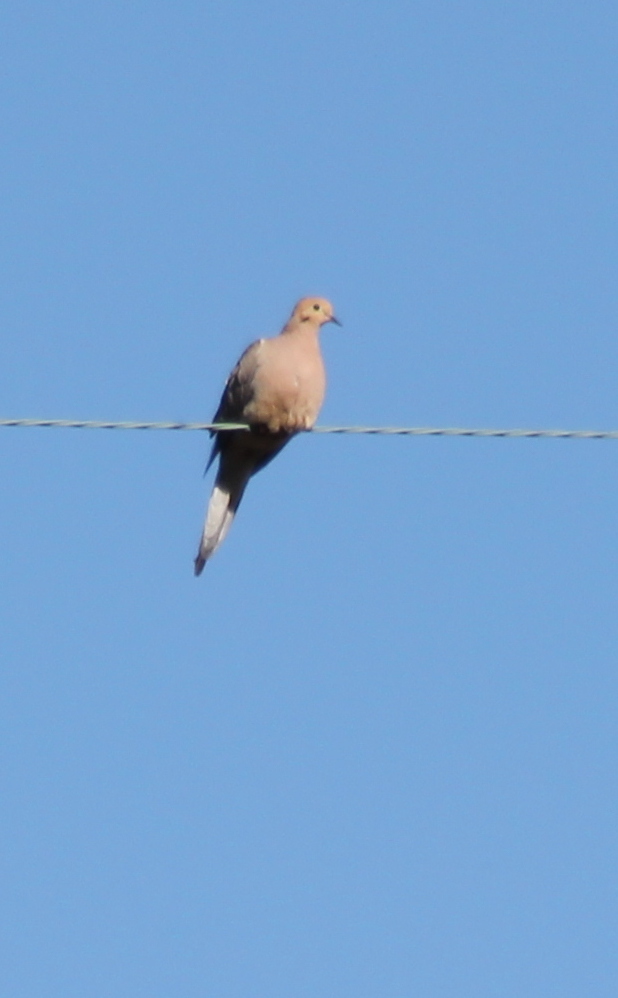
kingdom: Animalia
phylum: Chordata
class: Aves
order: Columbiformes
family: Columbidae
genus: Zenaida
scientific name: Zenaida macroura
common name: Mourning dove
